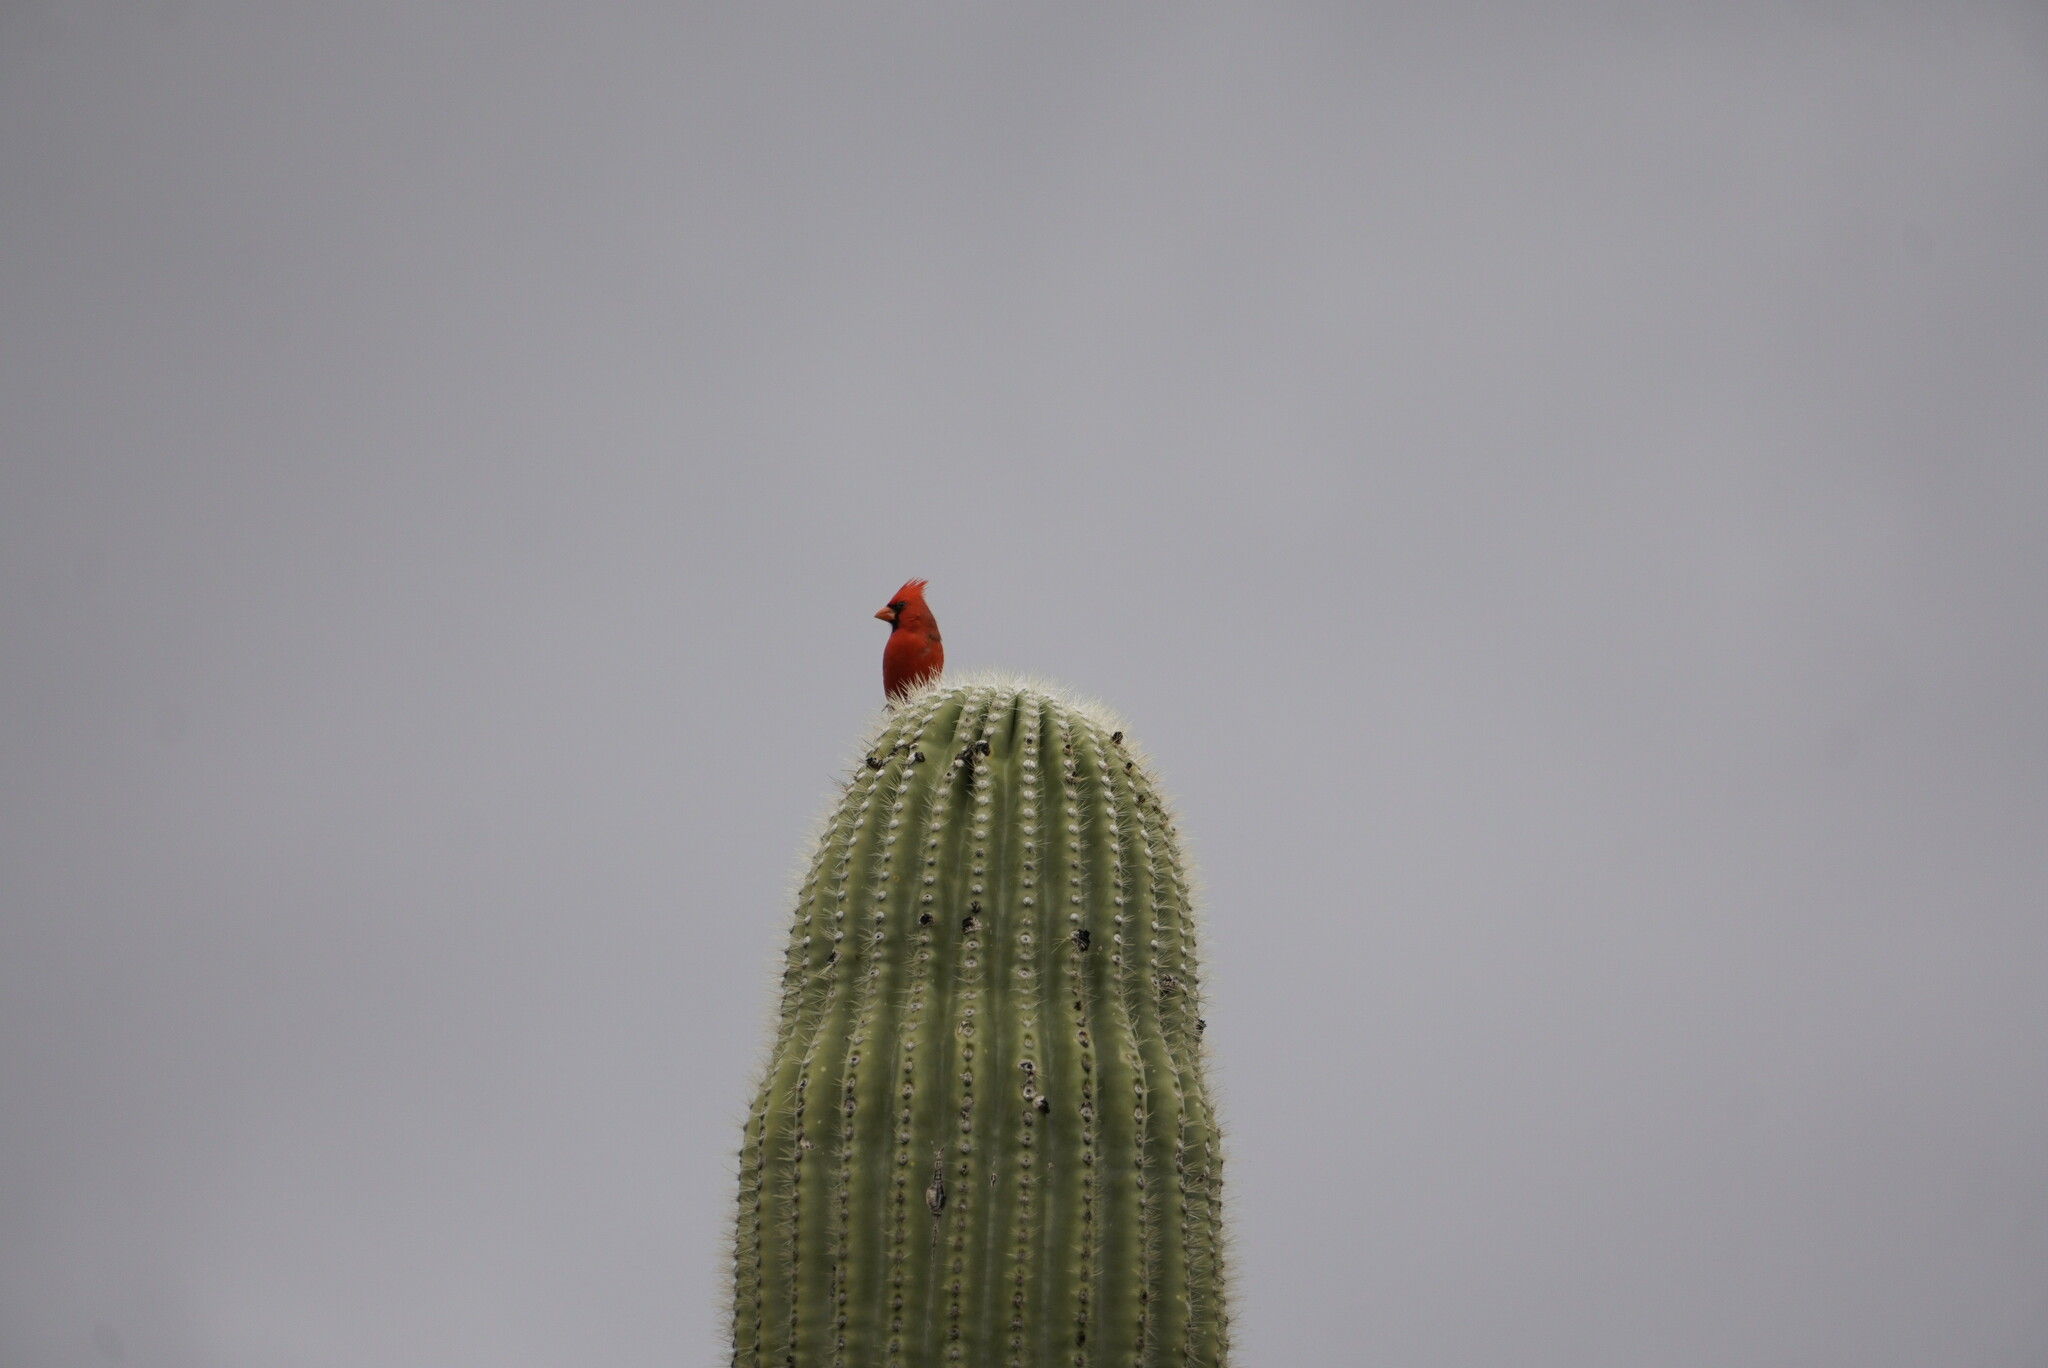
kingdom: Animalia
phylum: Chordata
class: Aves
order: Passeriformes
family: Cardinalidae
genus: Cardinalis
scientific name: Cardinalis cardinalis
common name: Northern cardinal
